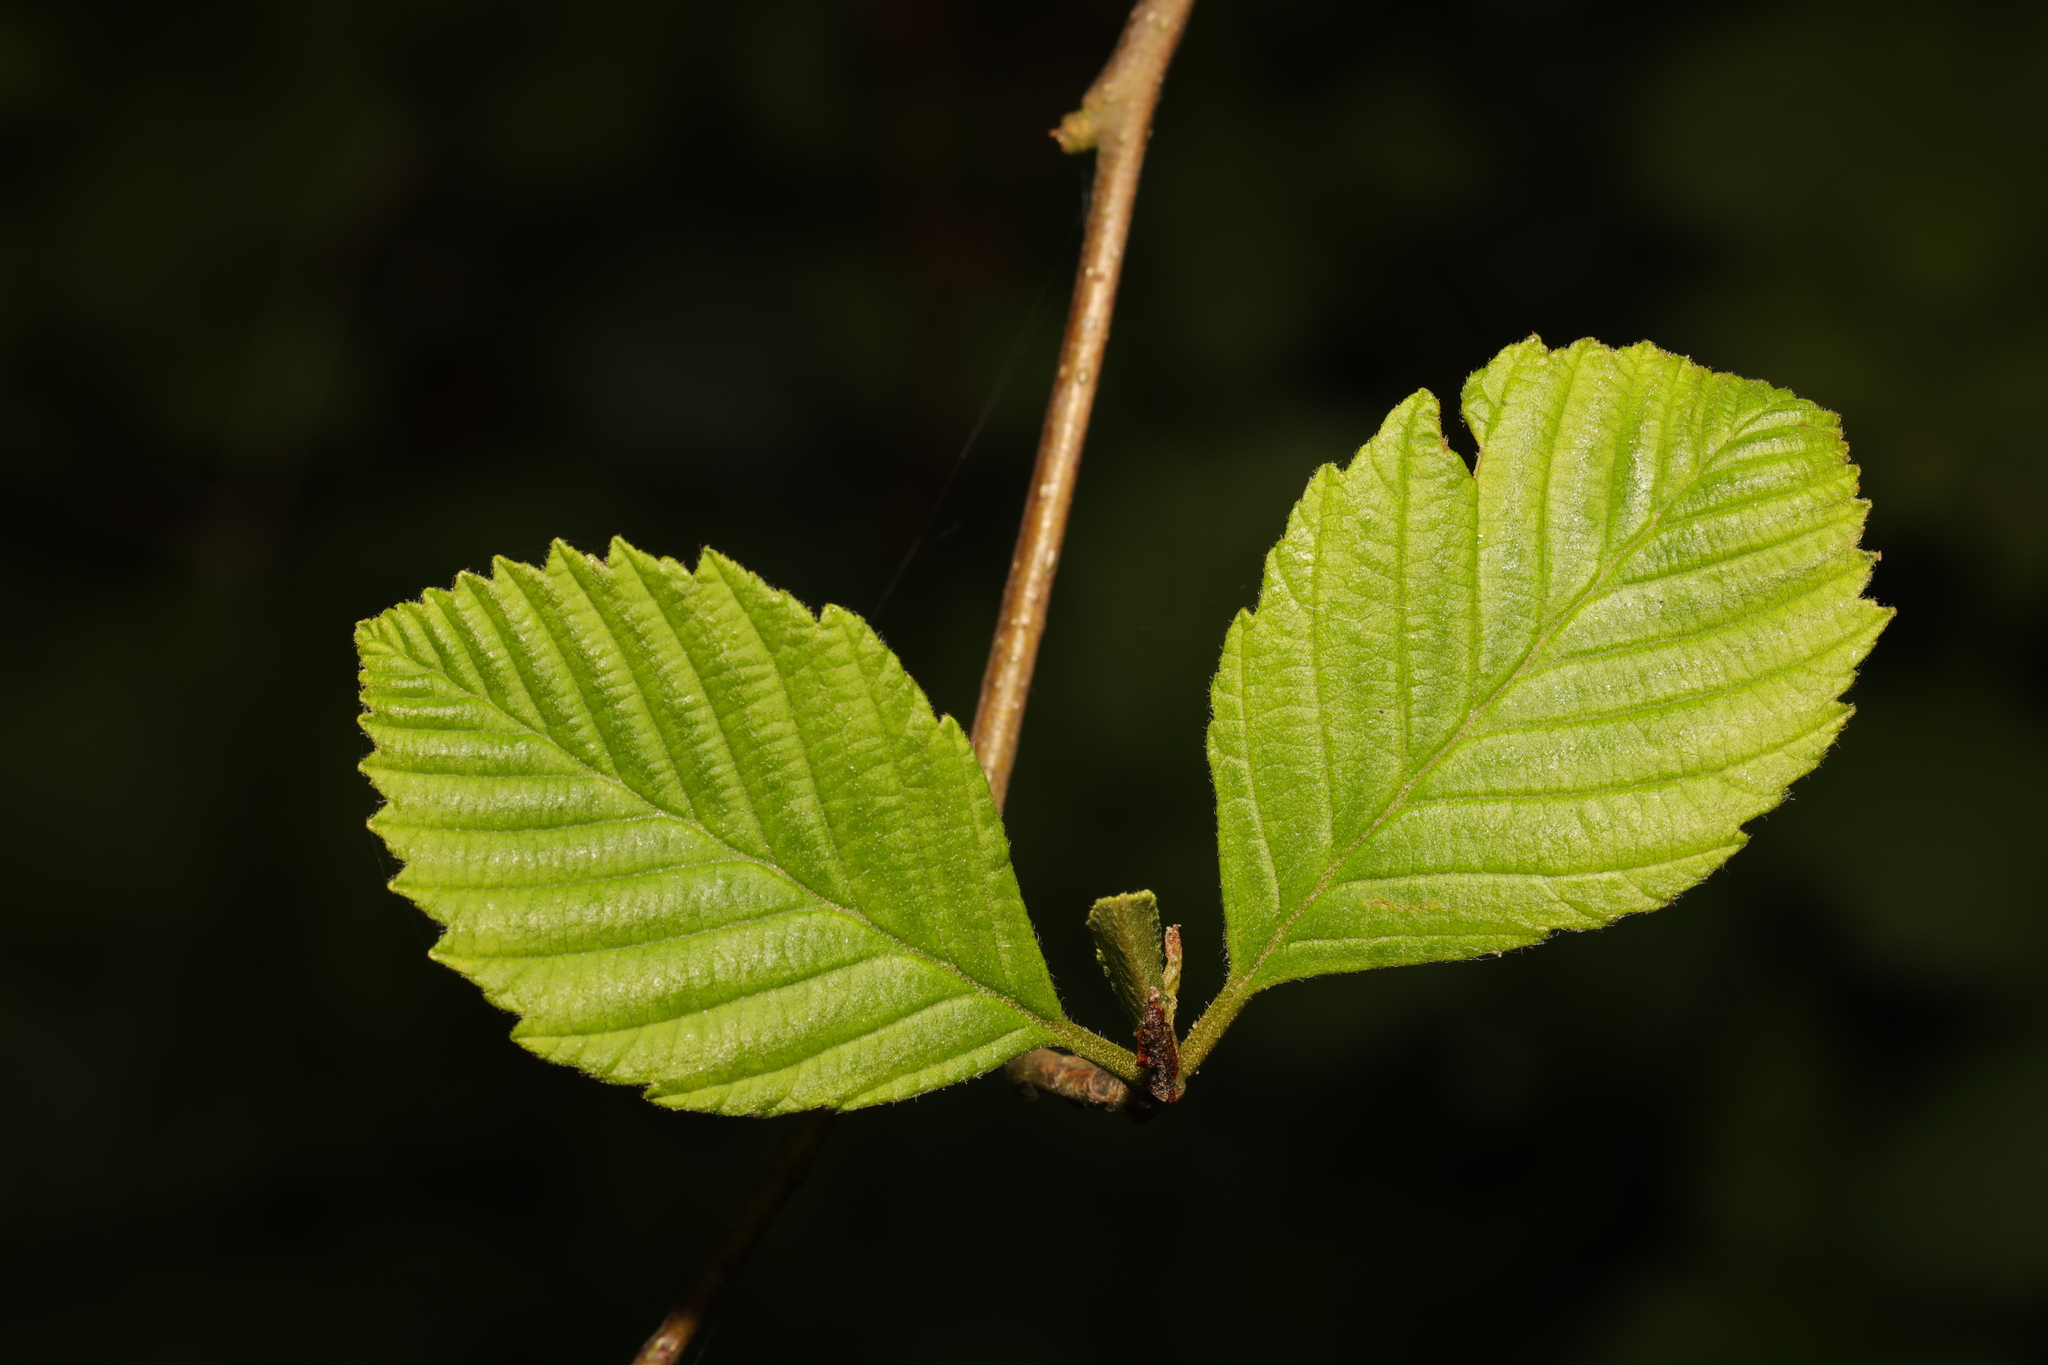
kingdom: Plantae
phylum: Tracheophyta
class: Magnoliopsida
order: Fagales
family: Betulaceae
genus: Alnus
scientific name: Alnus incana
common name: Grey alder
